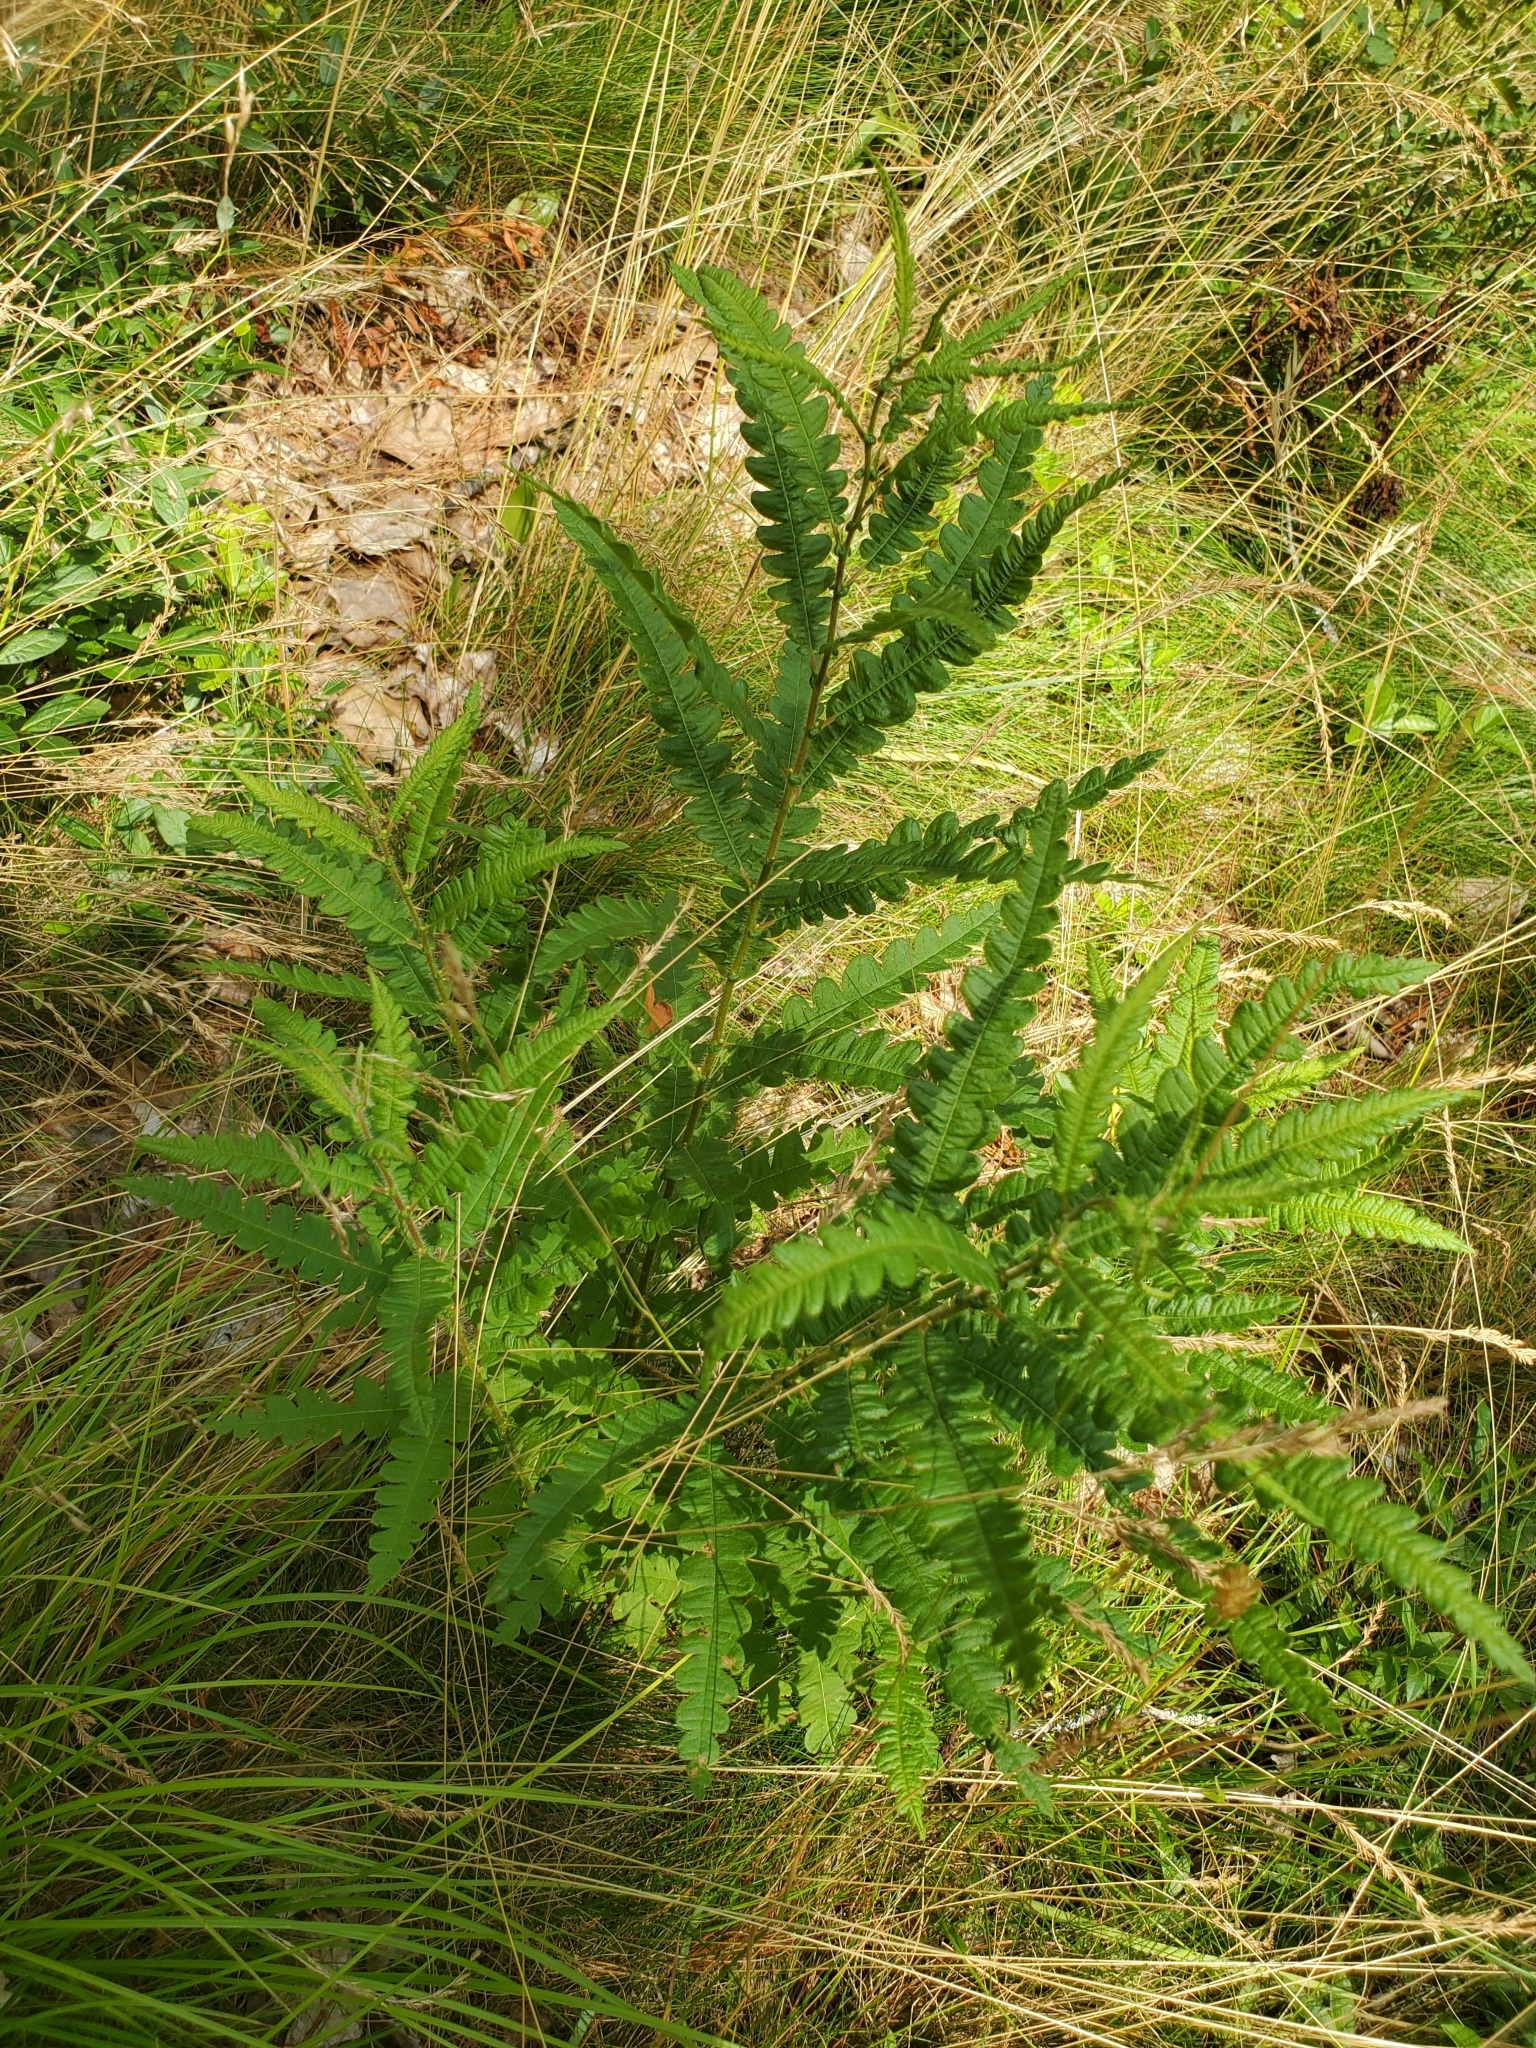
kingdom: Plantae
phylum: Tracheophyta
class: Magnoliopsida
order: Fagales
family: Myricaceae
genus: Comptonia
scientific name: Comptonia peregrina
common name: Sweet-fern
